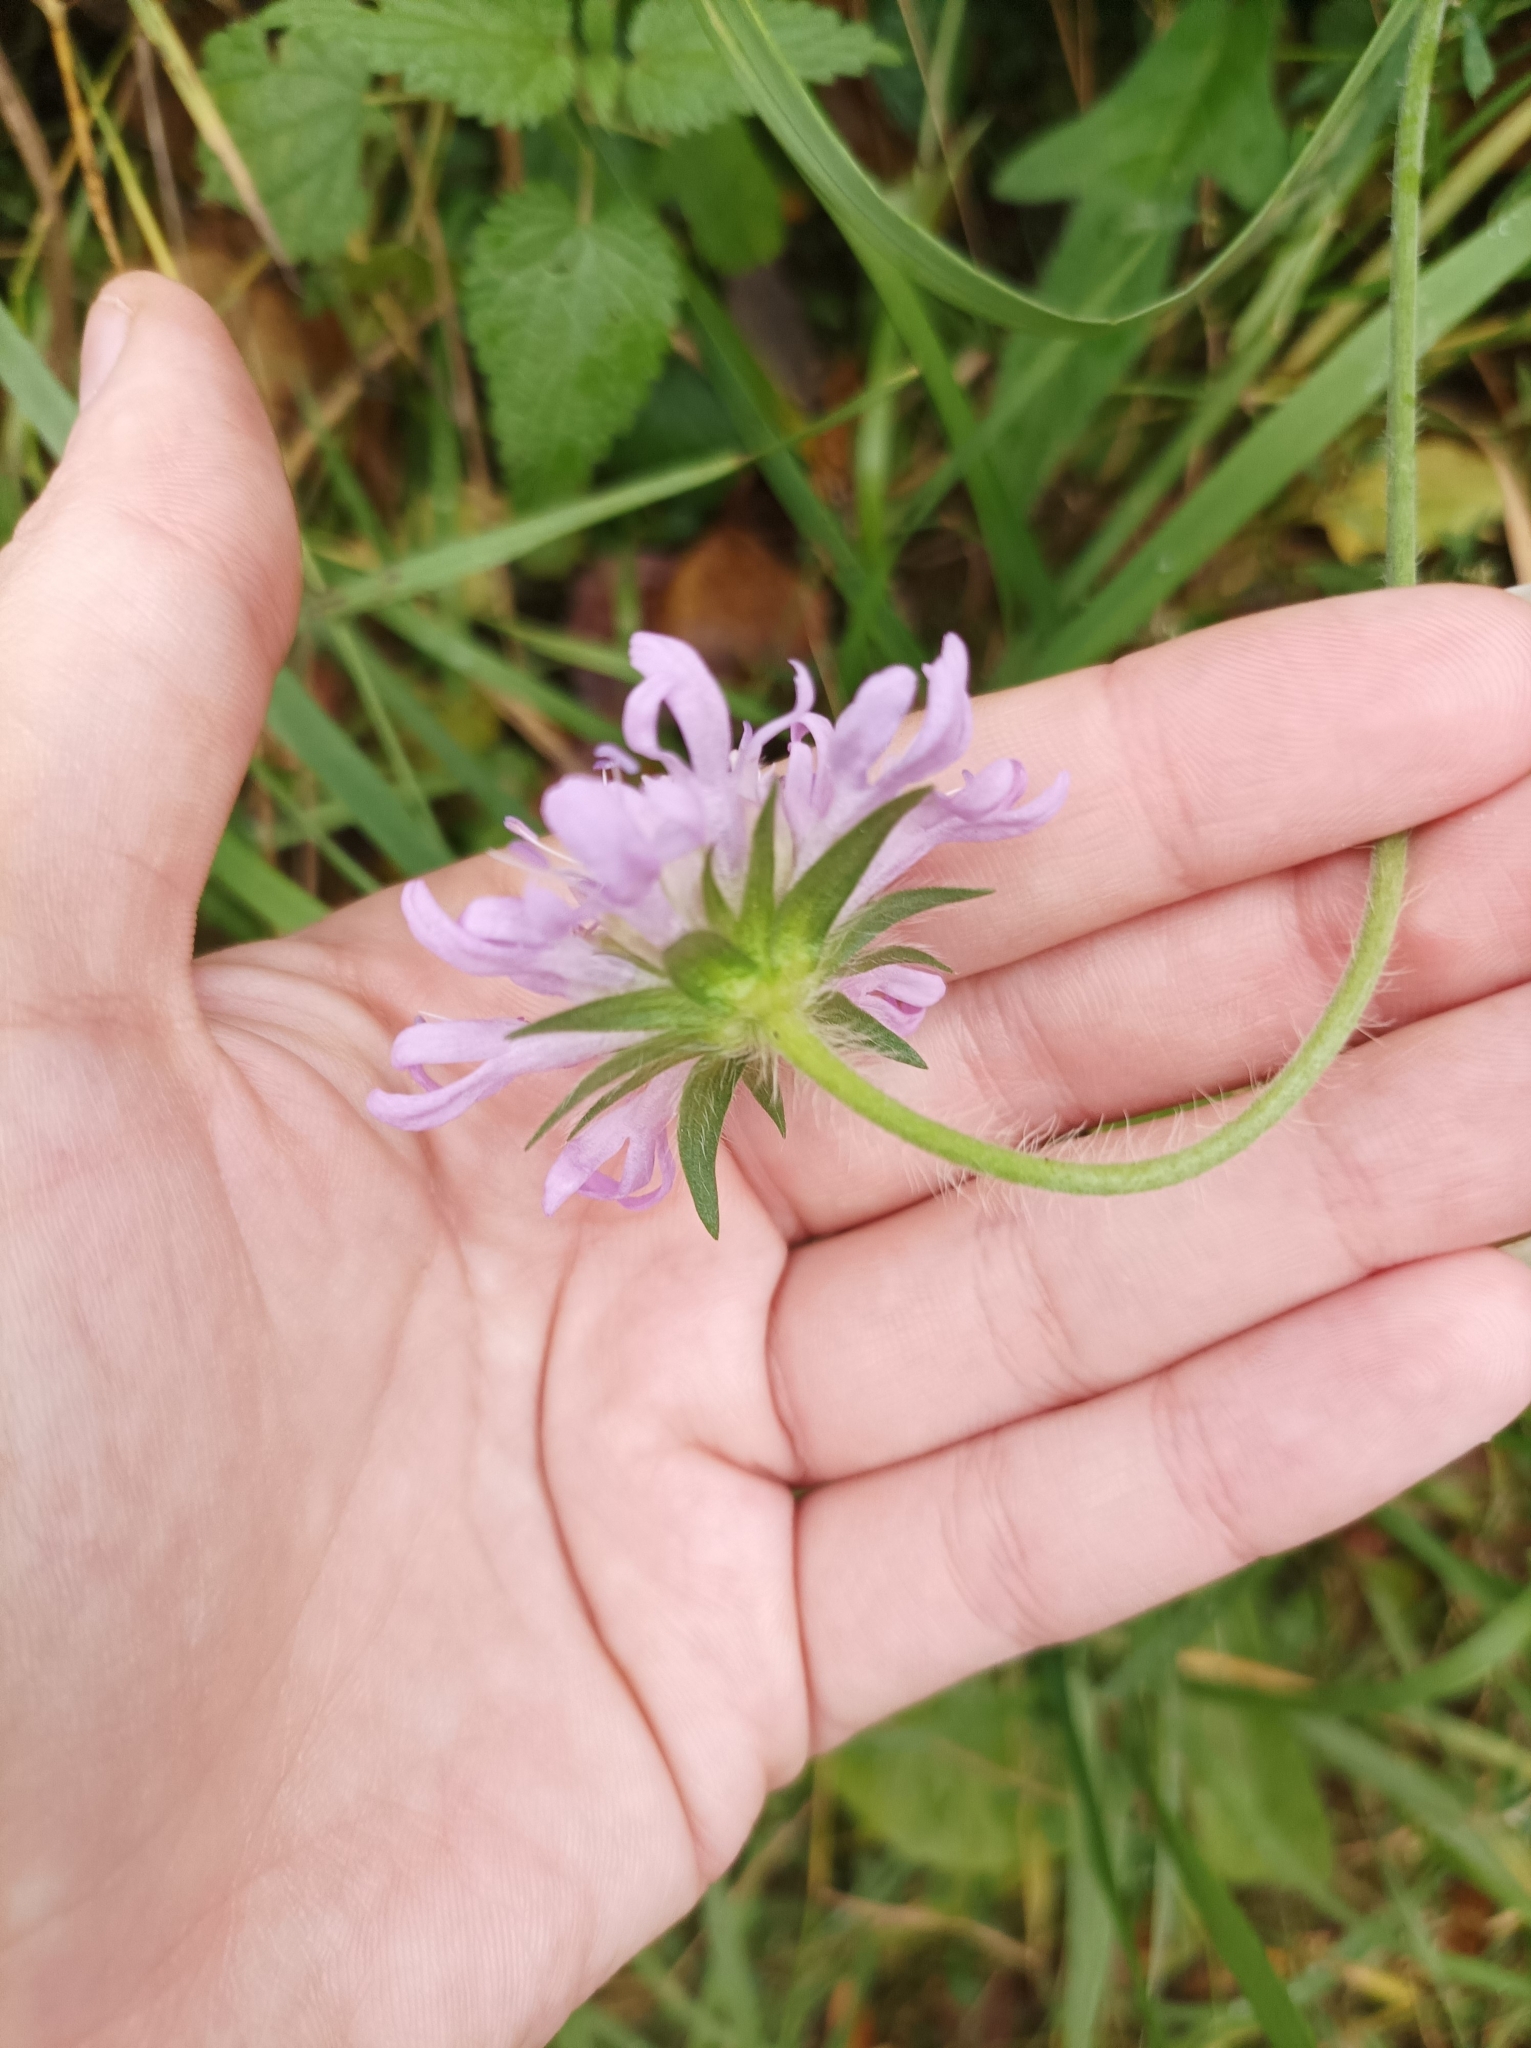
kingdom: Plantae
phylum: Tracheophyta
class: Magnoliopsida
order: Dipsacales
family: Caprifoliaceae
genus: Knautia
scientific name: Knautia arvensis
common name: Field scabiosa
